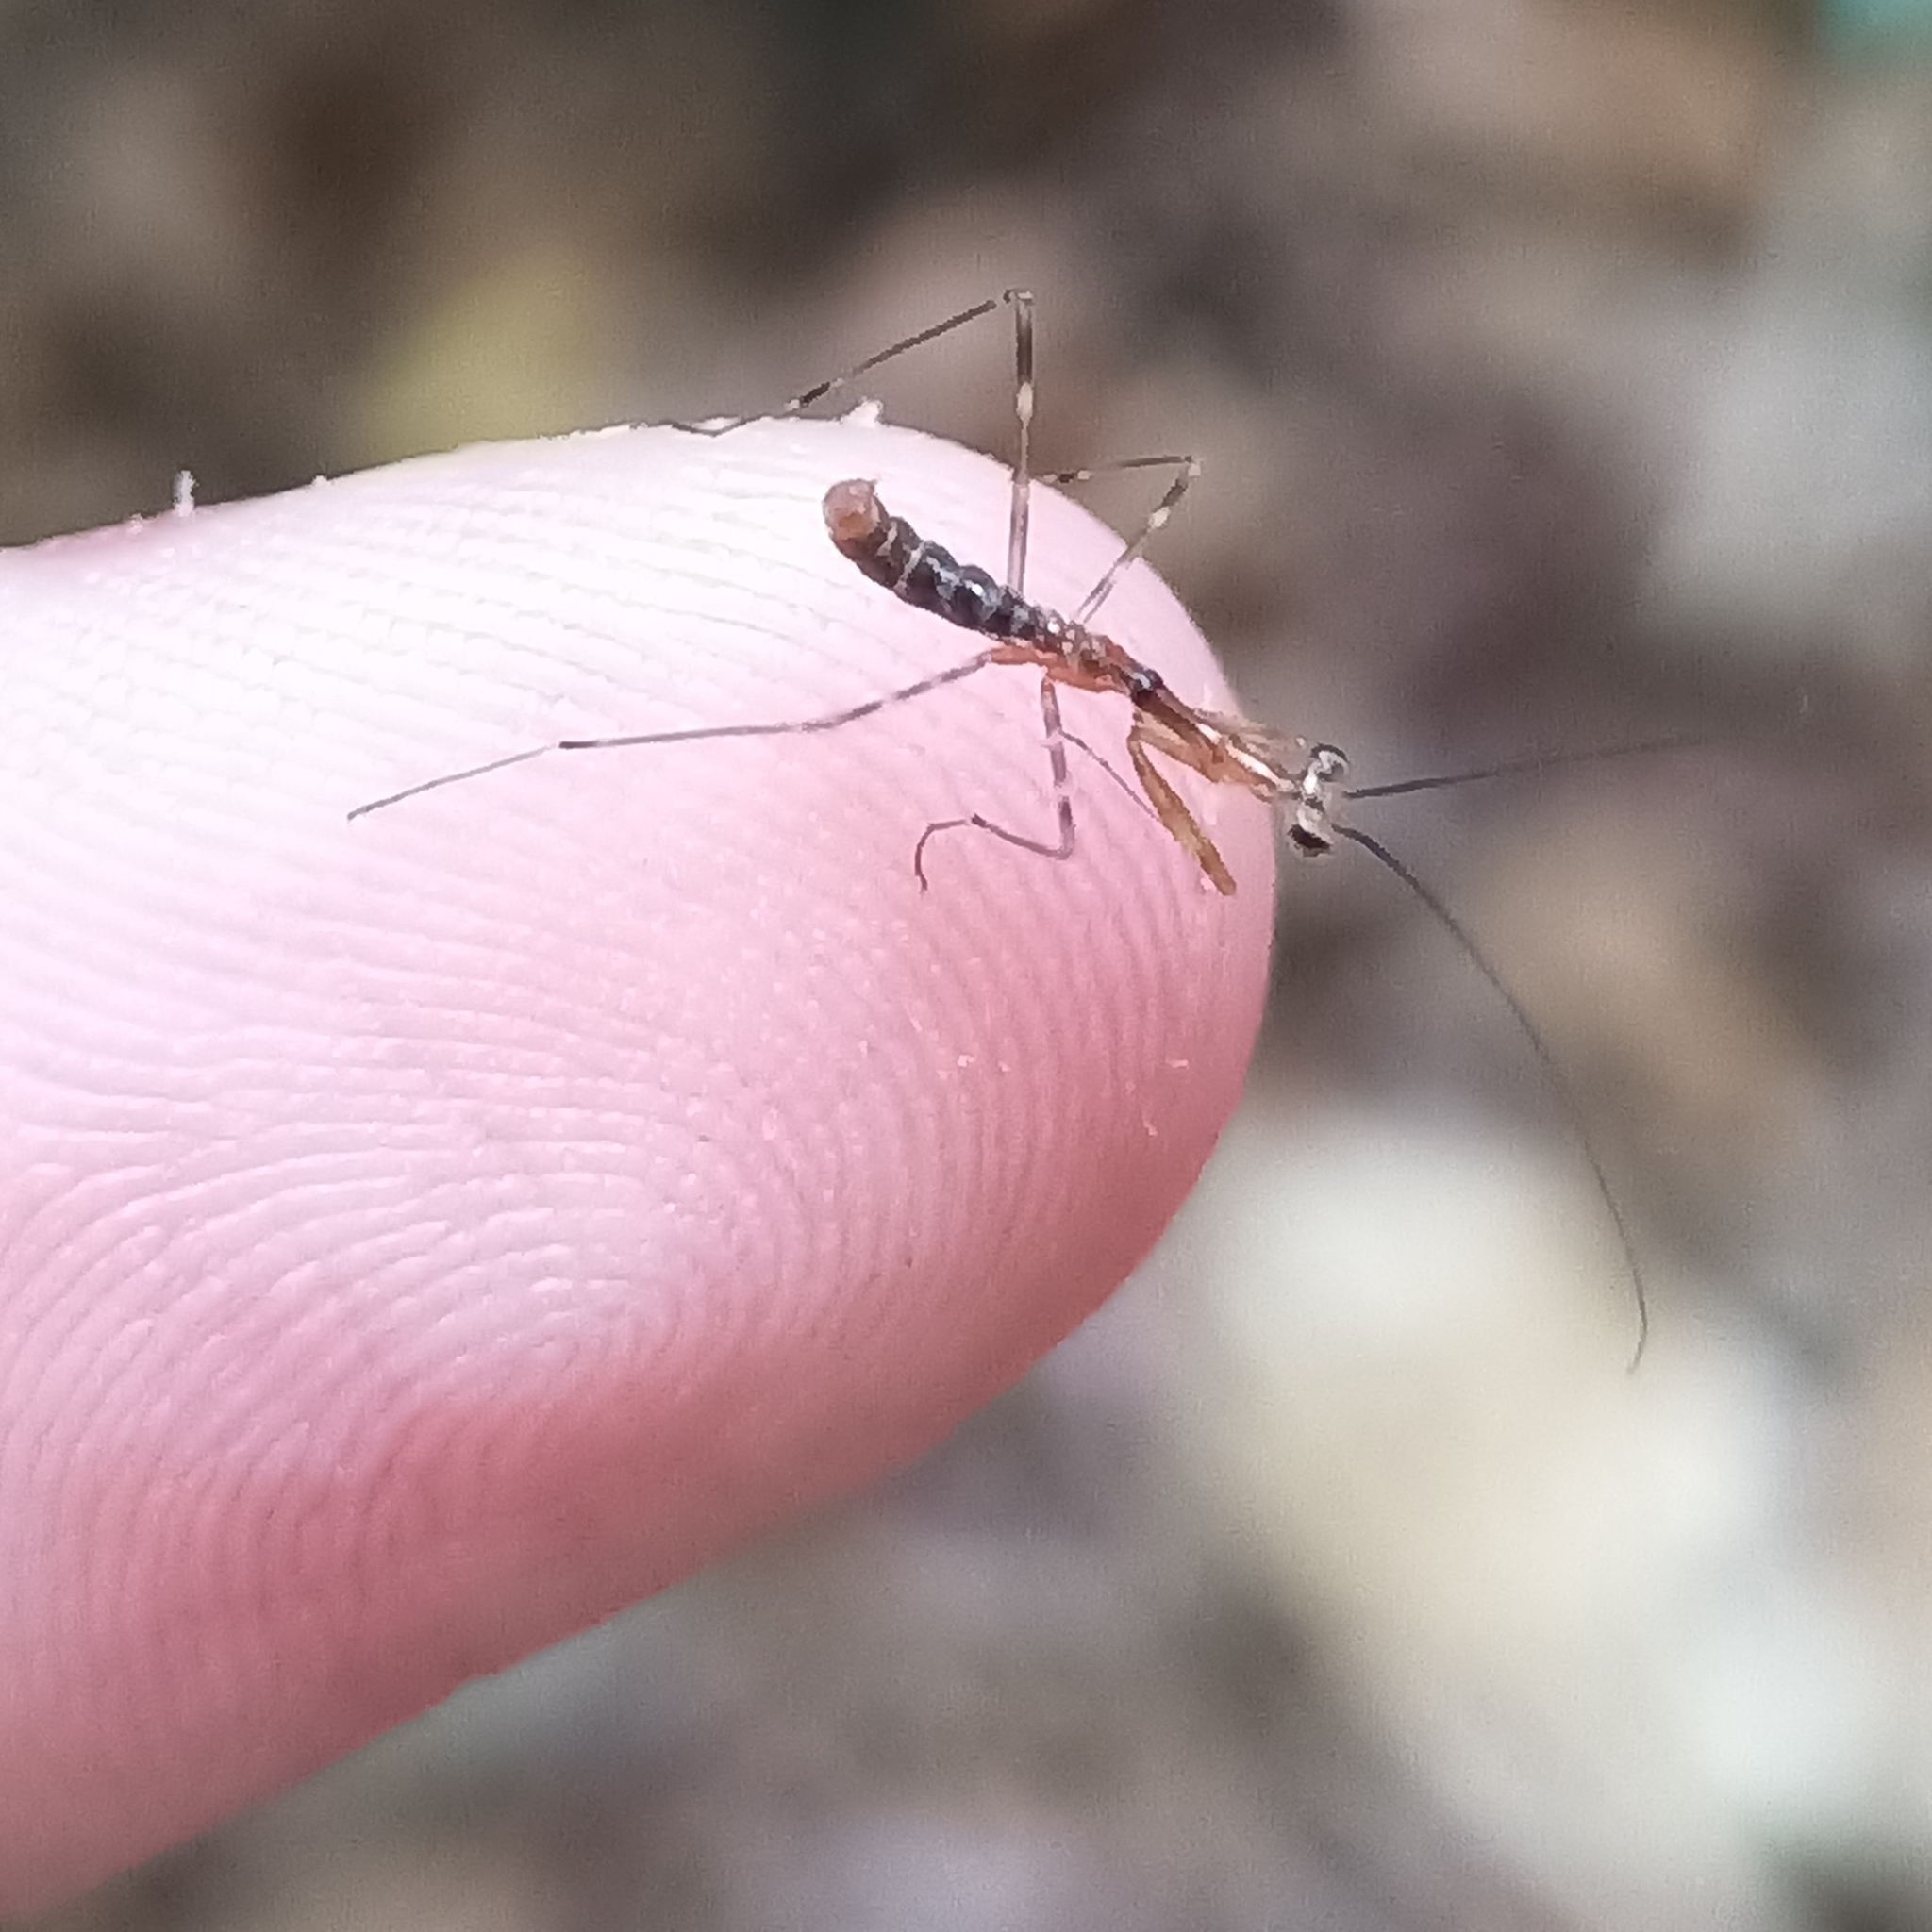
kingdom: Animalia
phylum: Arthropoda
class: Insecta
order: Mantodea
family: Photinaidae
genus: Photina
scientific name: Photina
